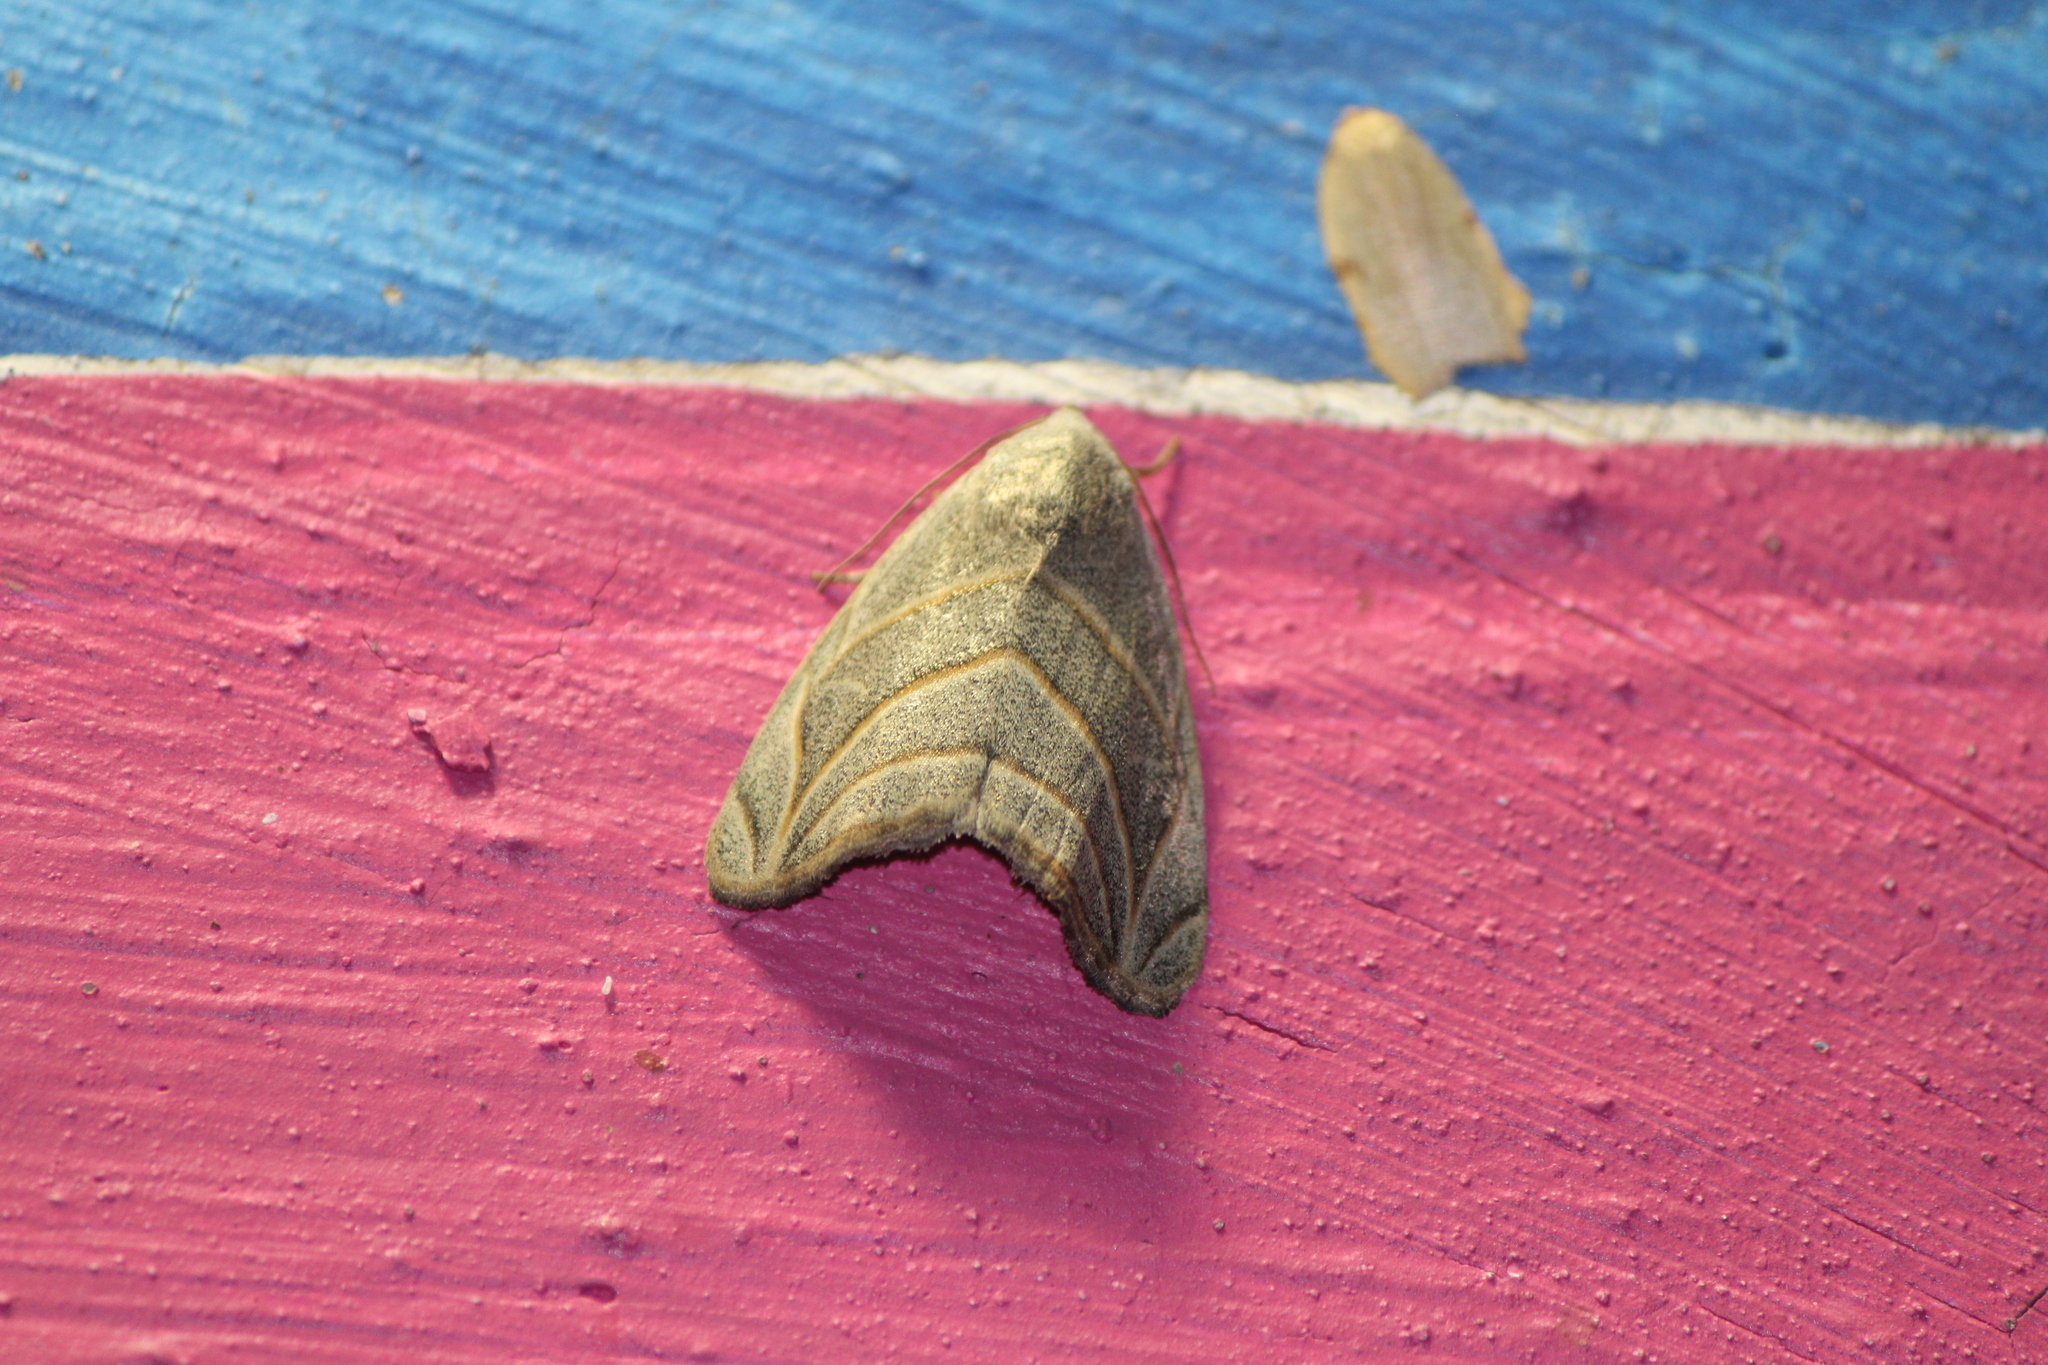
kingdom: Animalia
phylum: Arthropoda
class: Insecta
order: Lepidoptera
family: Noctuidae
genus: Bagisara
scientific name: Bagisara laverna
